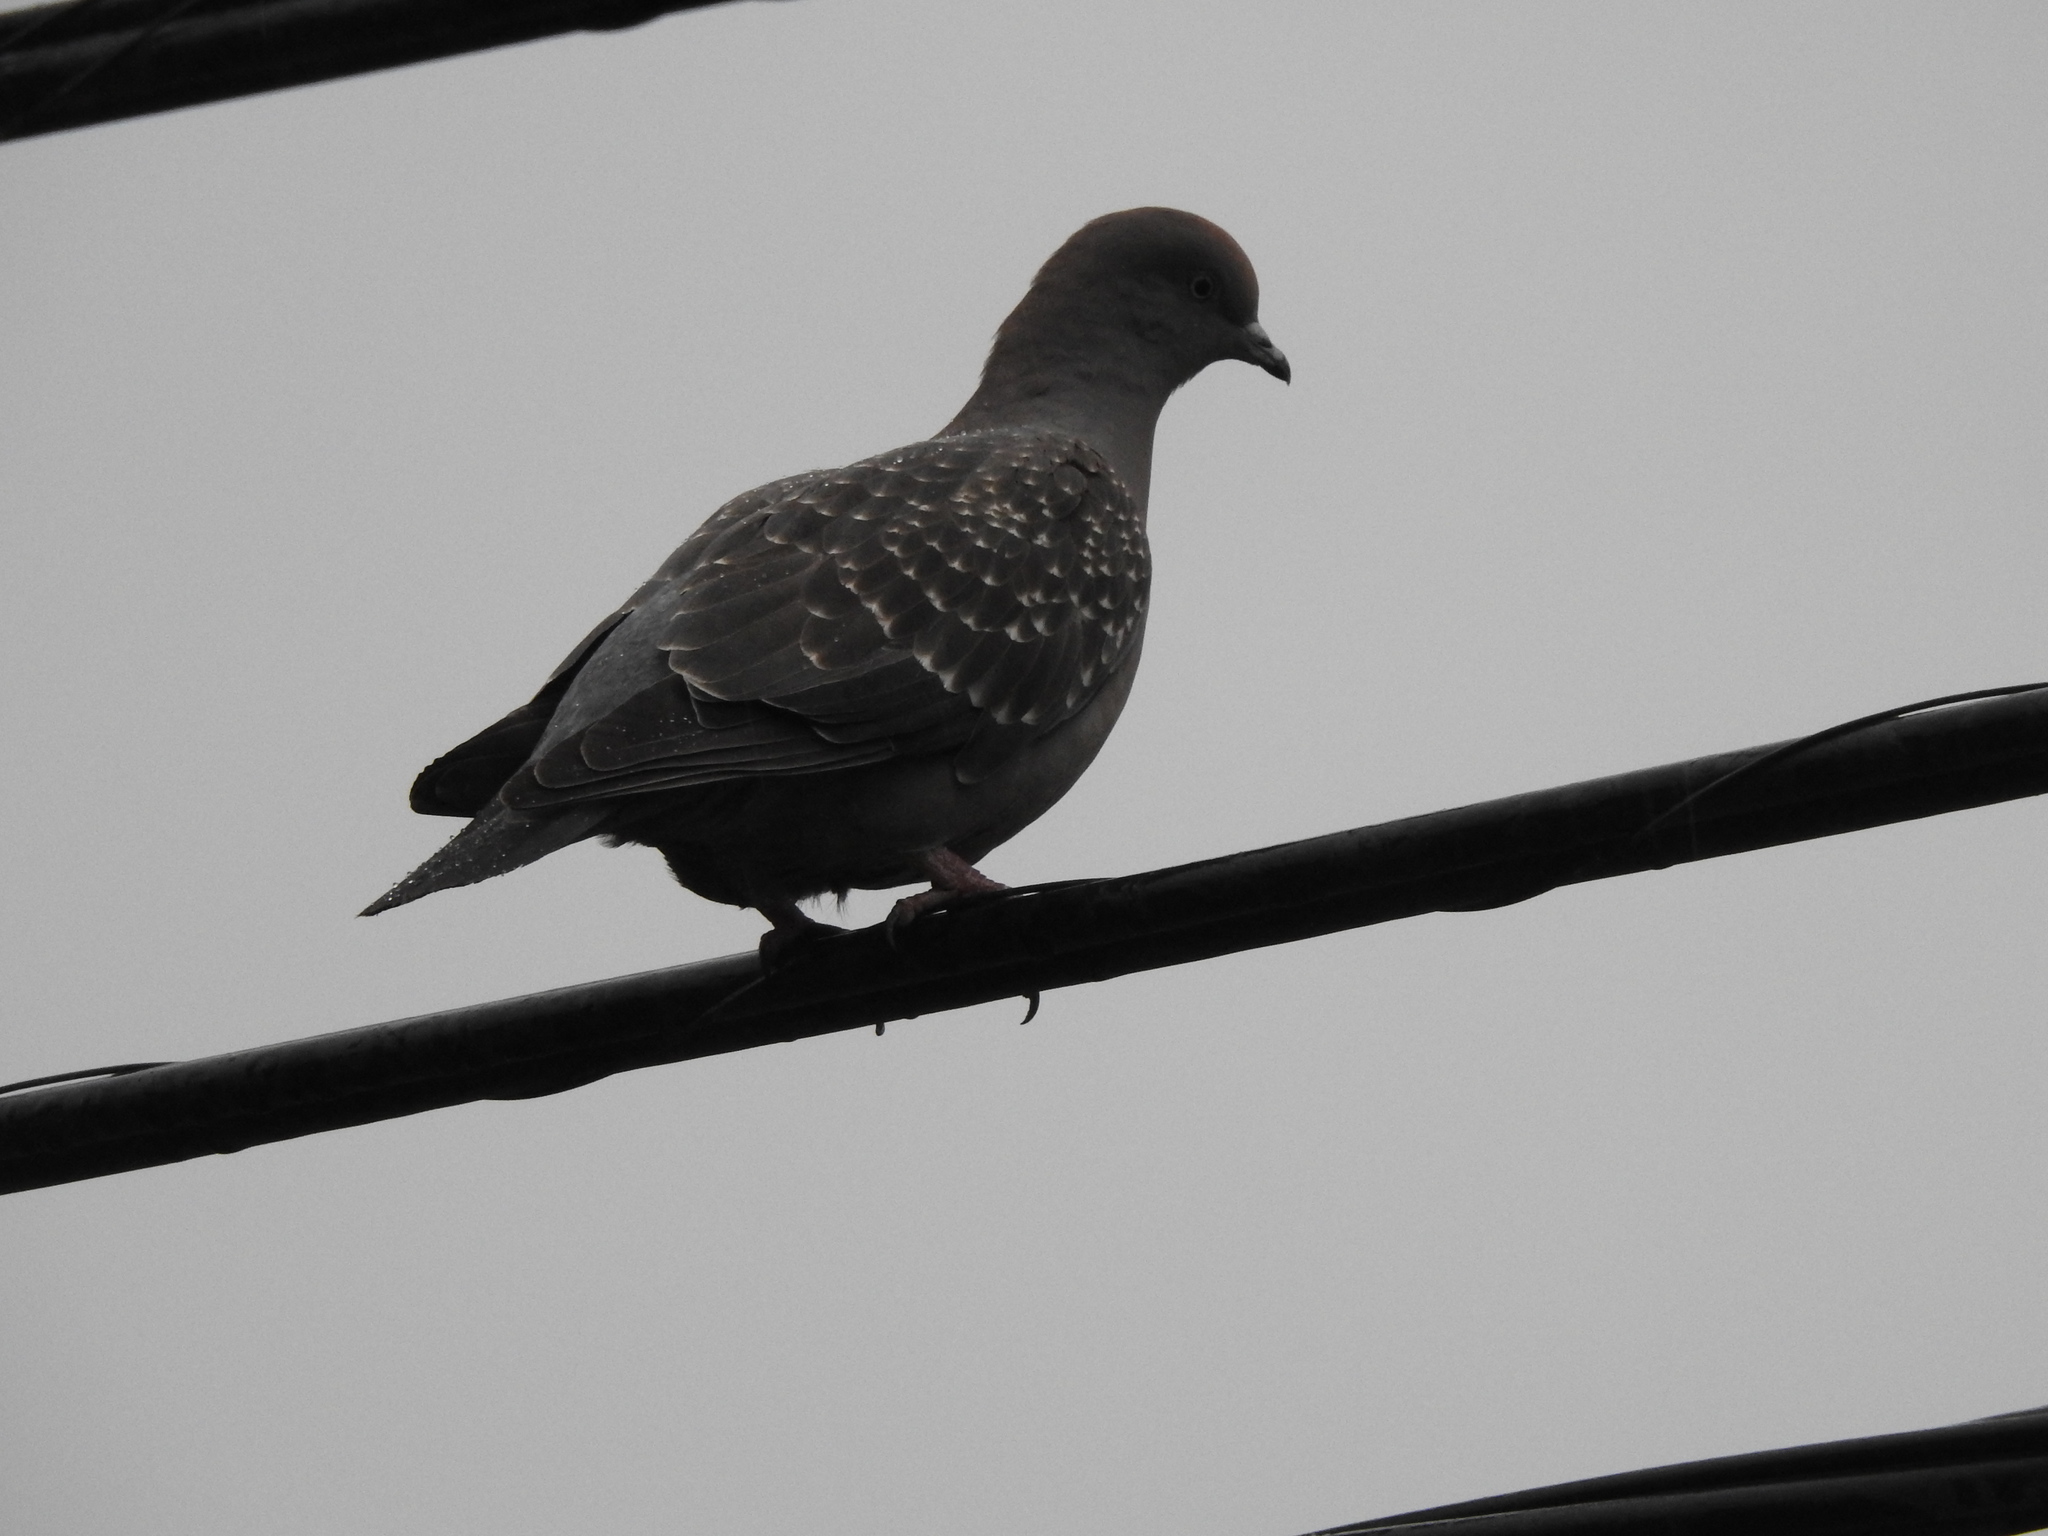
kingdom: Animalia
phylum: Chordata
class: Aves
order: Columbiformes
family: Columbidae
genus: Patagioenas
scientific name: Patagioenas maculosa
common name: Spot-winged pigeon
